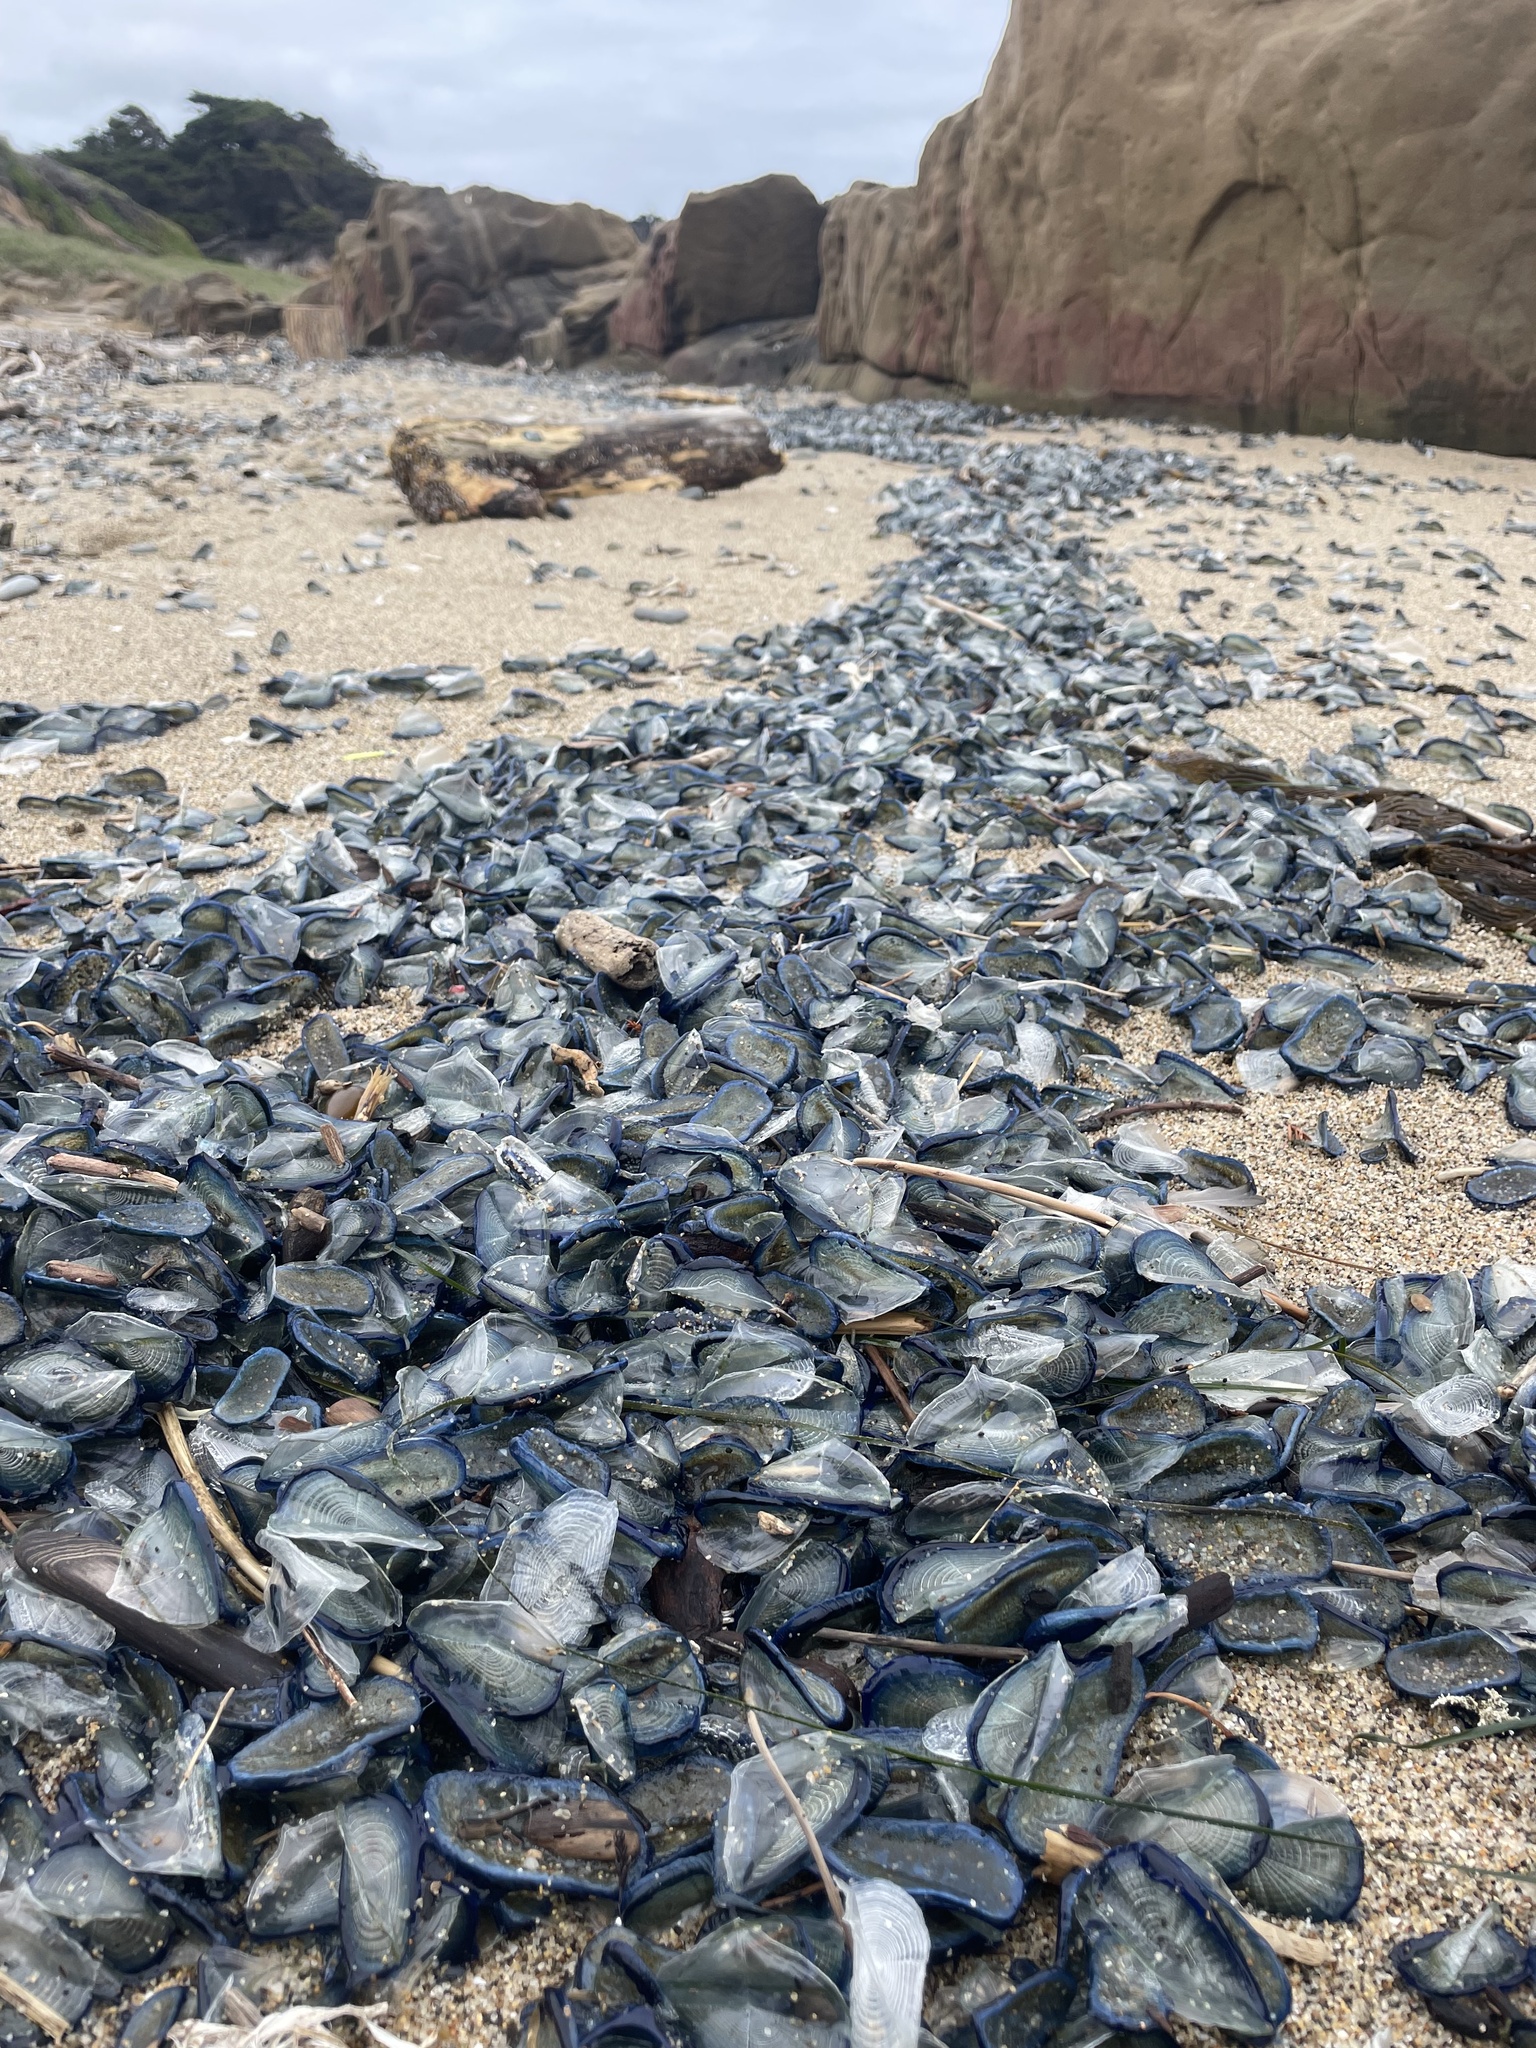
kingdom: Animalia
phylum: Cnidaria
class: Hydrozoa
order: Anthoathecata
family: Porpitidae
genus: Velella
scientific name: Velella velella
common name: By-the-wind-sailor
